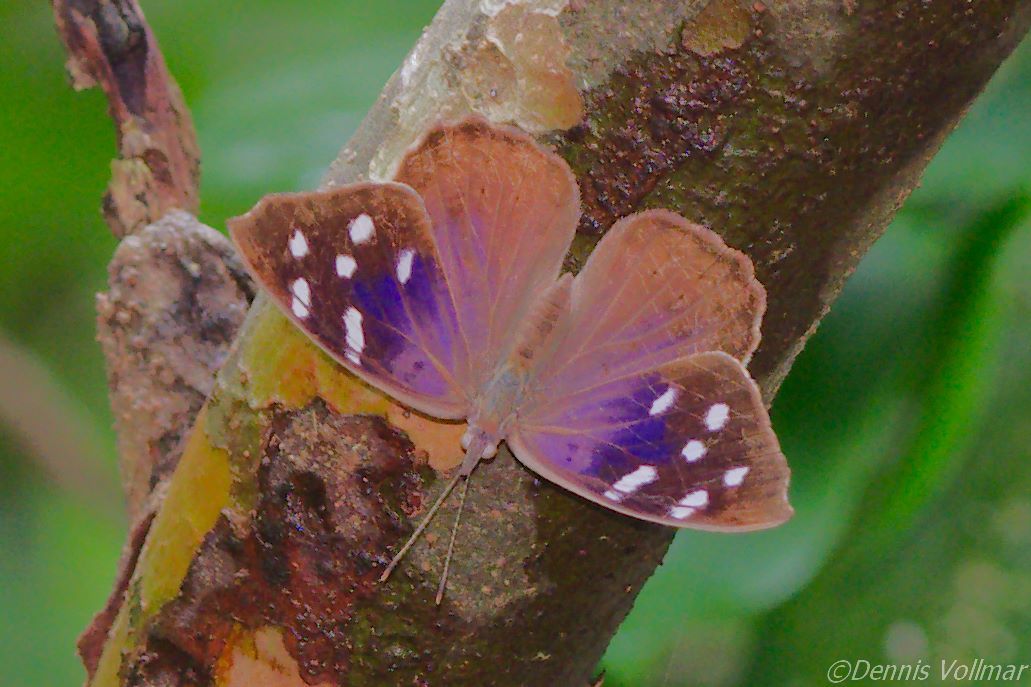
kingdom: Animalia
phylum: Arthropoda
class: Insecta
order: Lepidoptera
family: Nymphalidae
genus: Eunica
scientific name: Eunica tatila
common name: Florida purplewing
